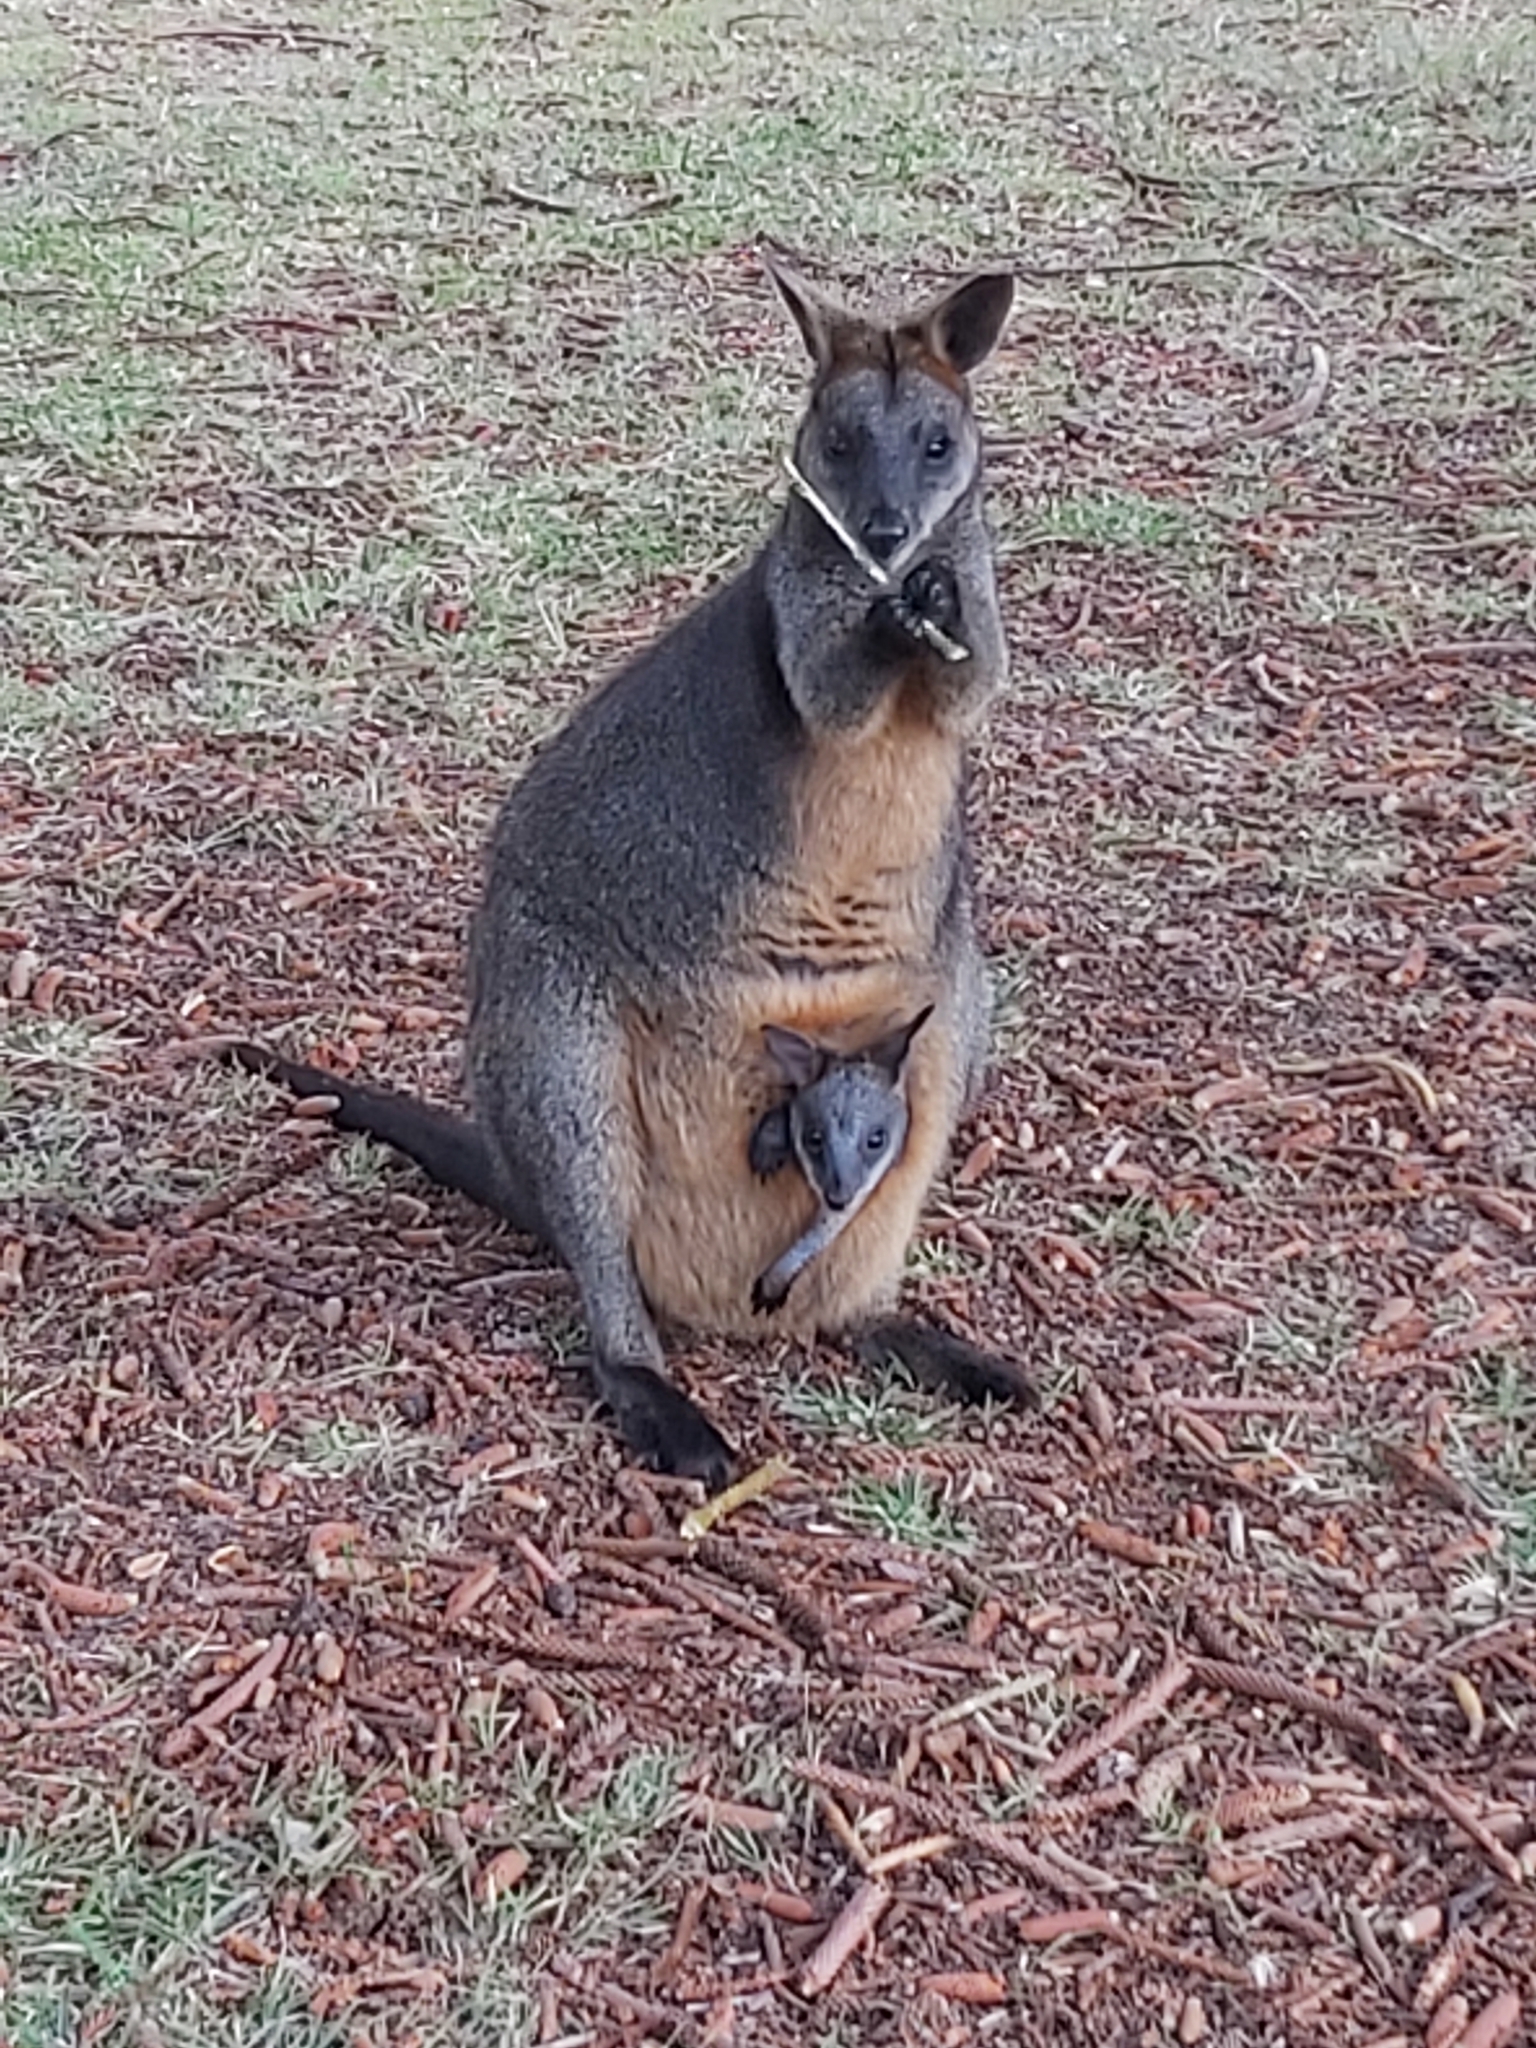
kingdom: Animalia
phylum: Chordata
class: Mammalia
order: Diprotodontia
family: Macropodidae
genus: Wallabia
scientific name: Wallabia bicolor
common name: Swamp wallaby
